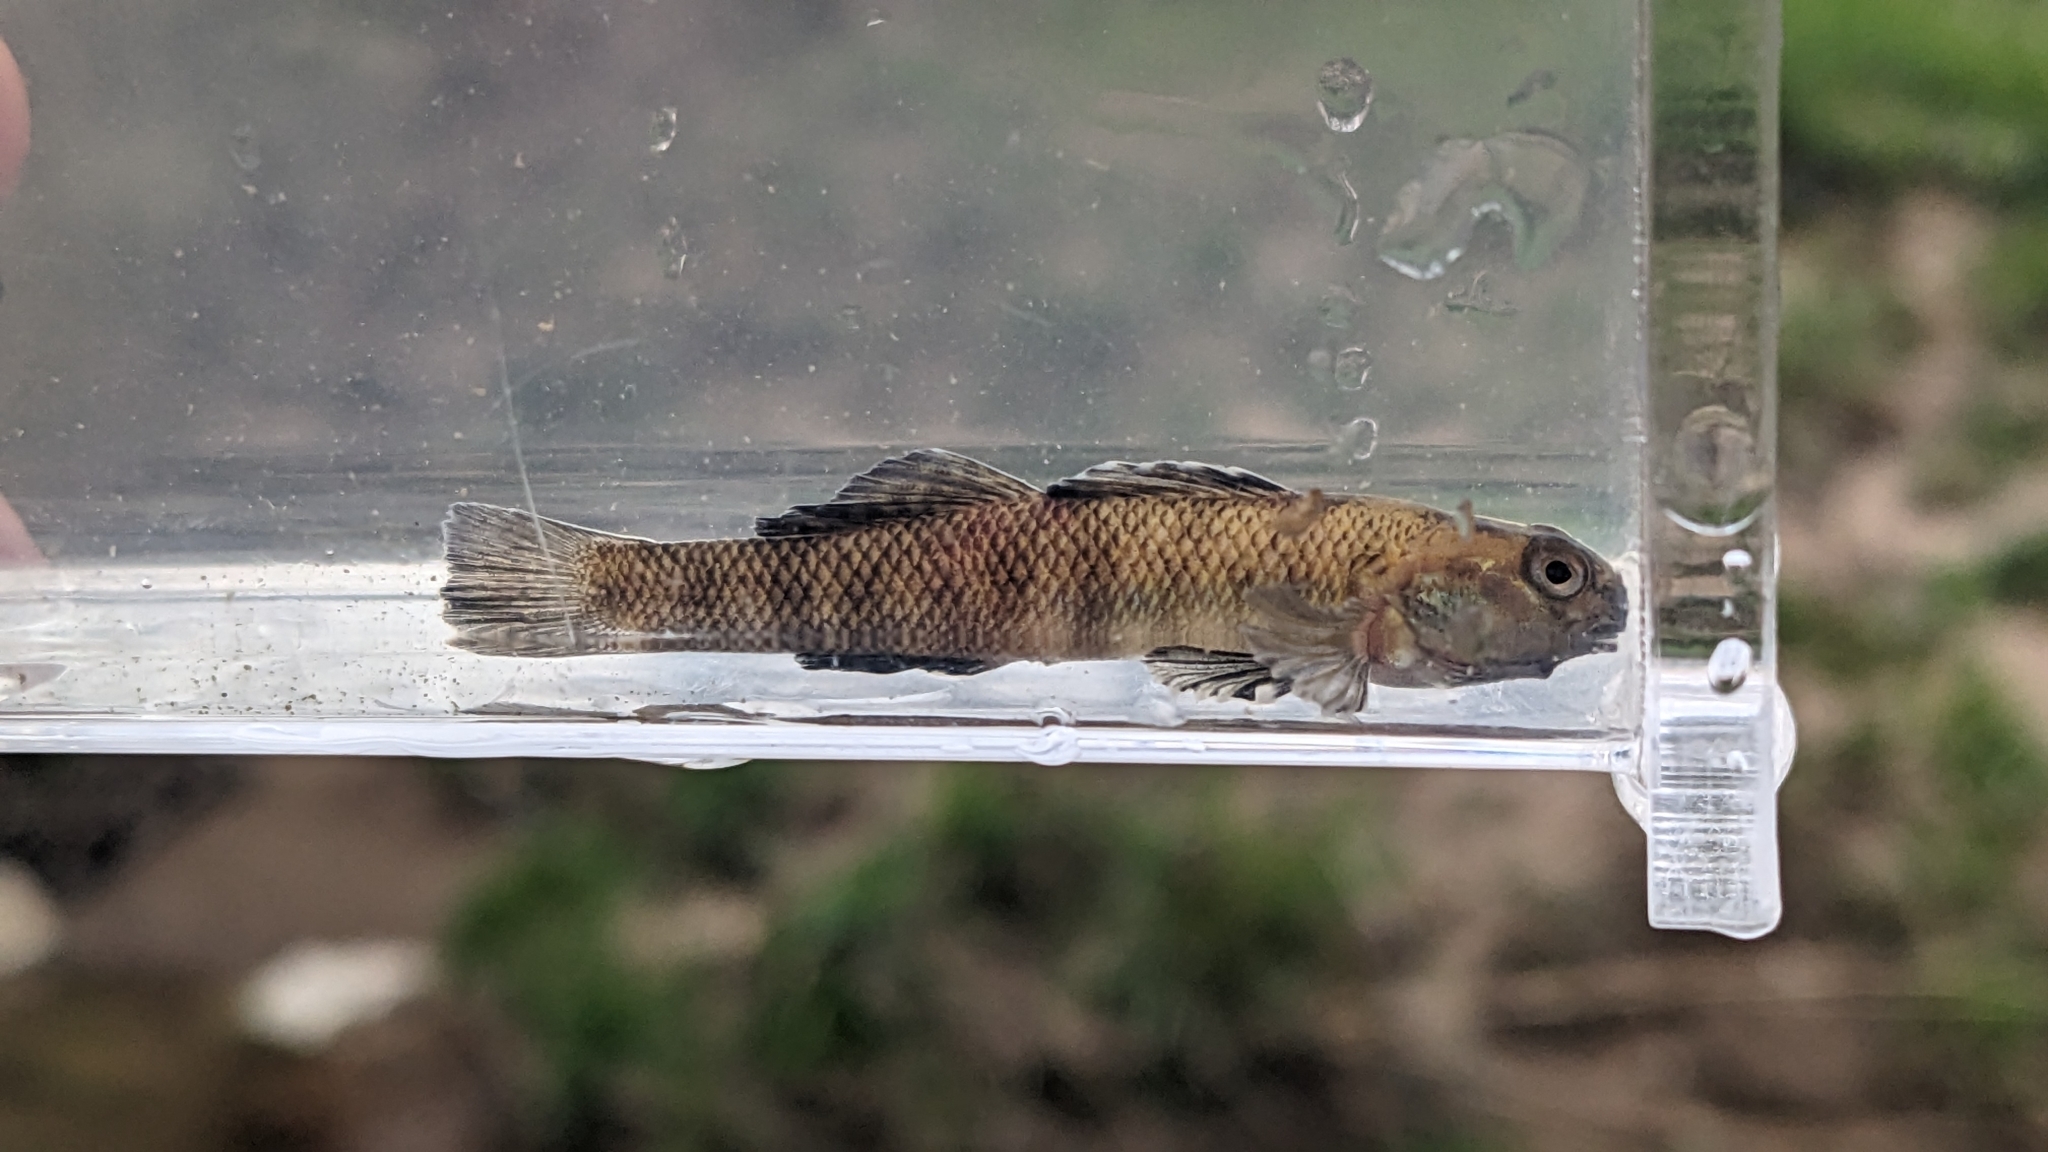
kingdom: Animalia
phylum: Chordata
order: Perciformes
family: Percidae
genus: Etheostoma
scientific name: Etheostoma nigrum
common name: Johnny darter
